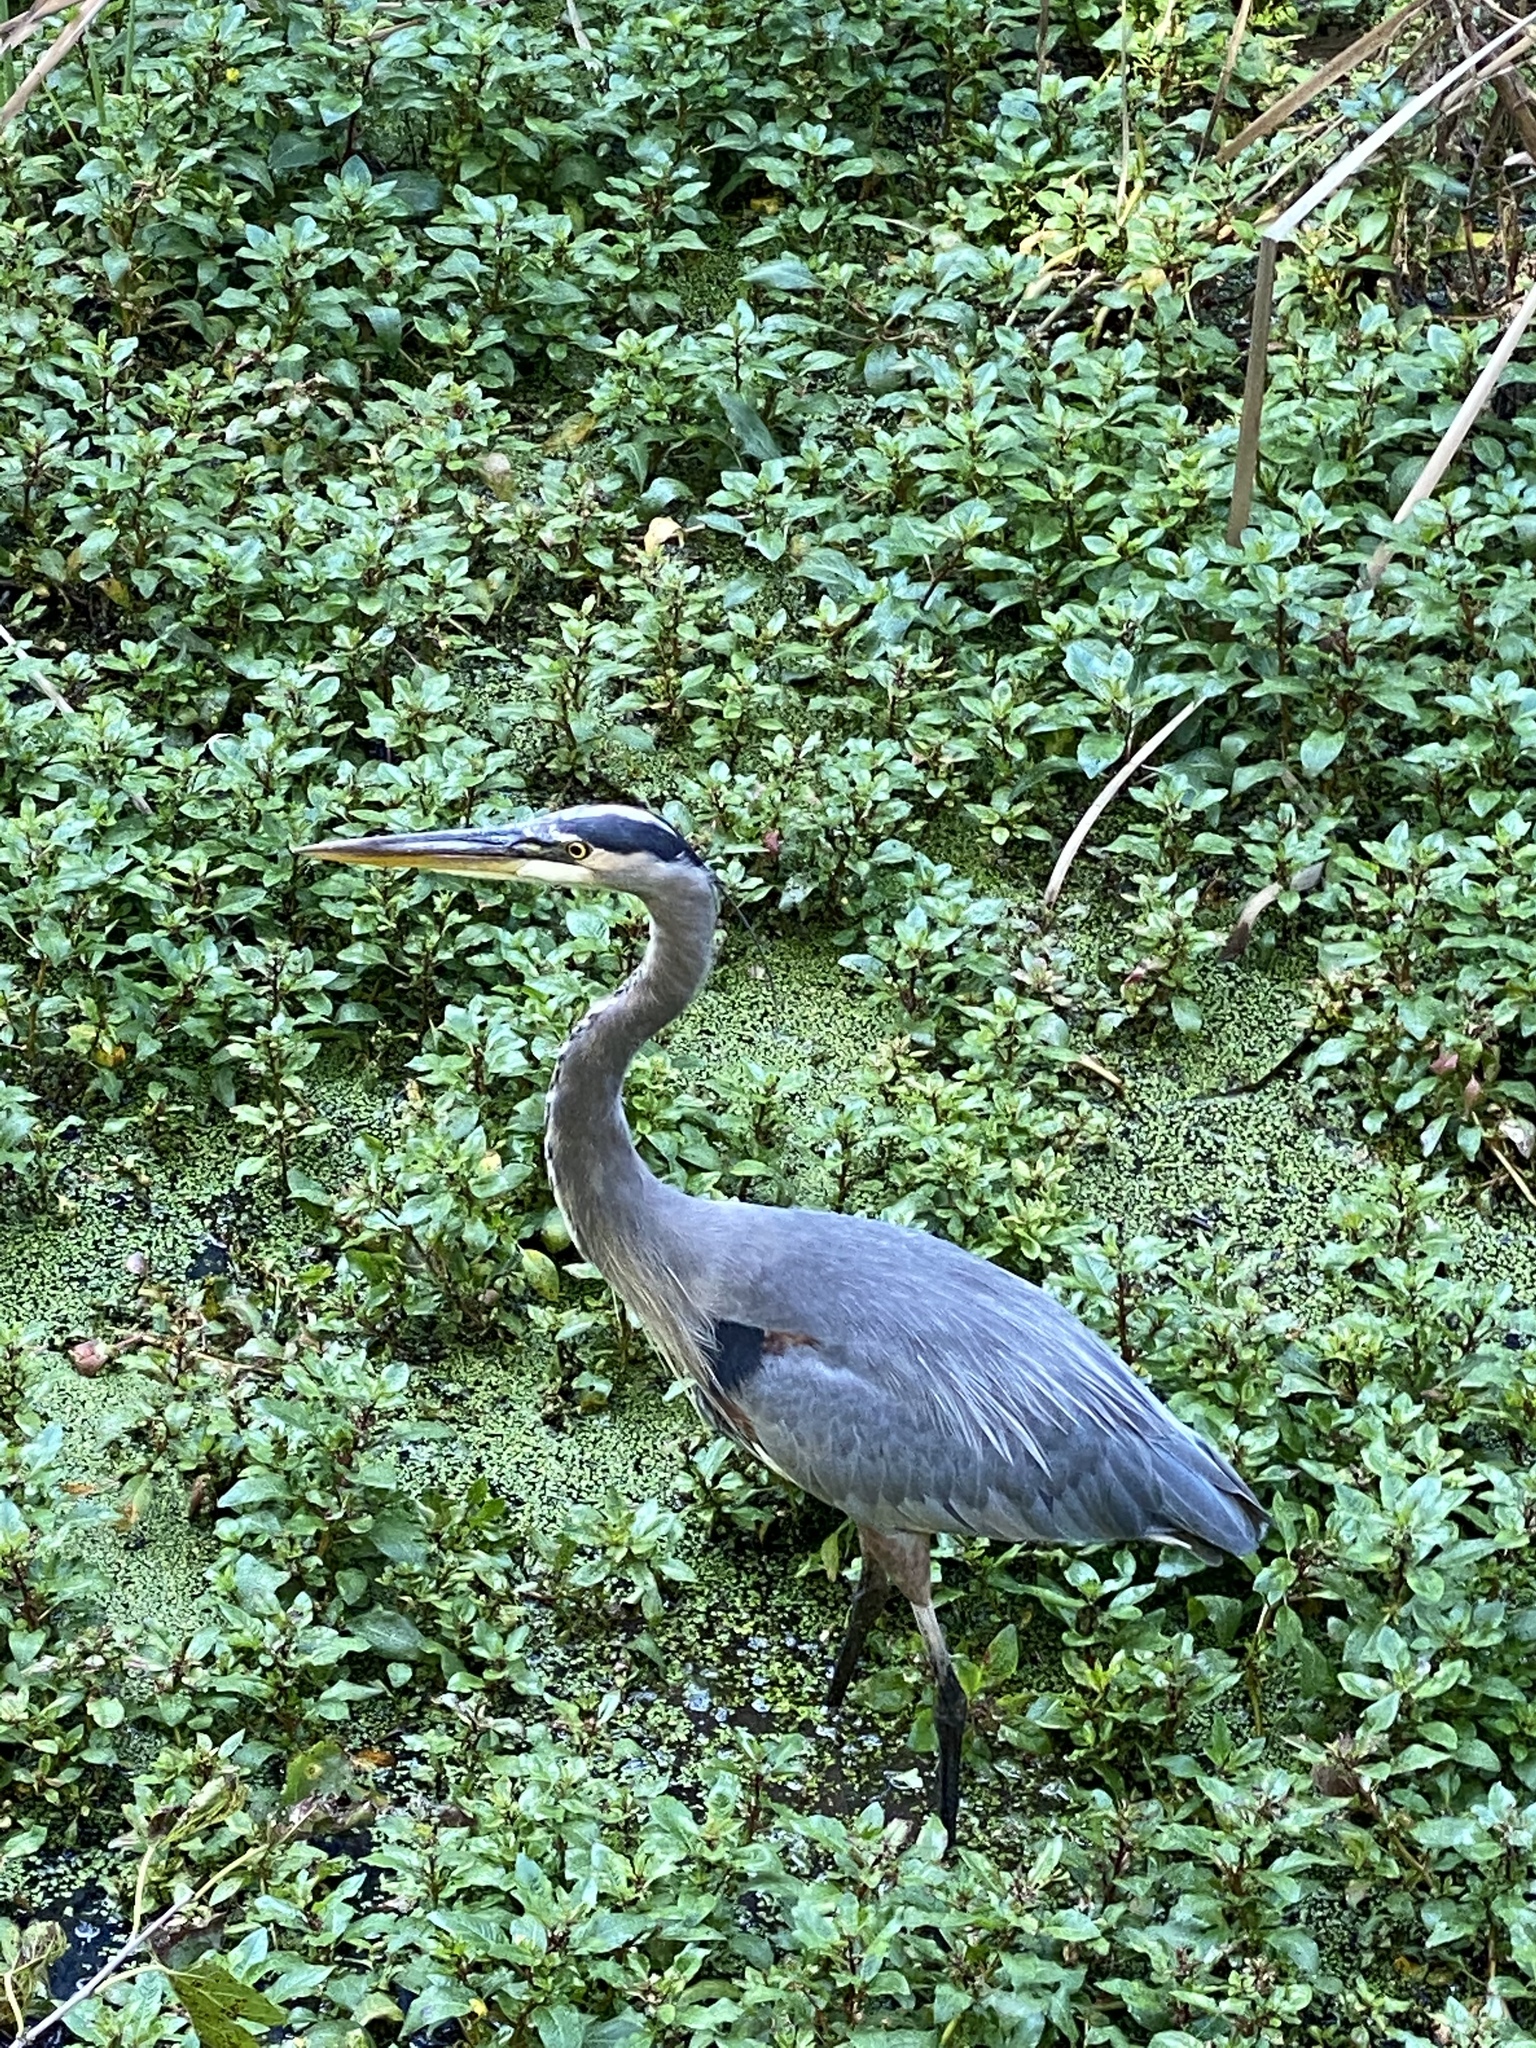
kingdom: Animalia
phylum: Chordata
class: Aves
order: Pelecaniformes
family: Ardeidae
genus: Ardea
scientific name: Ardea herodias
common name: Great blue heron
